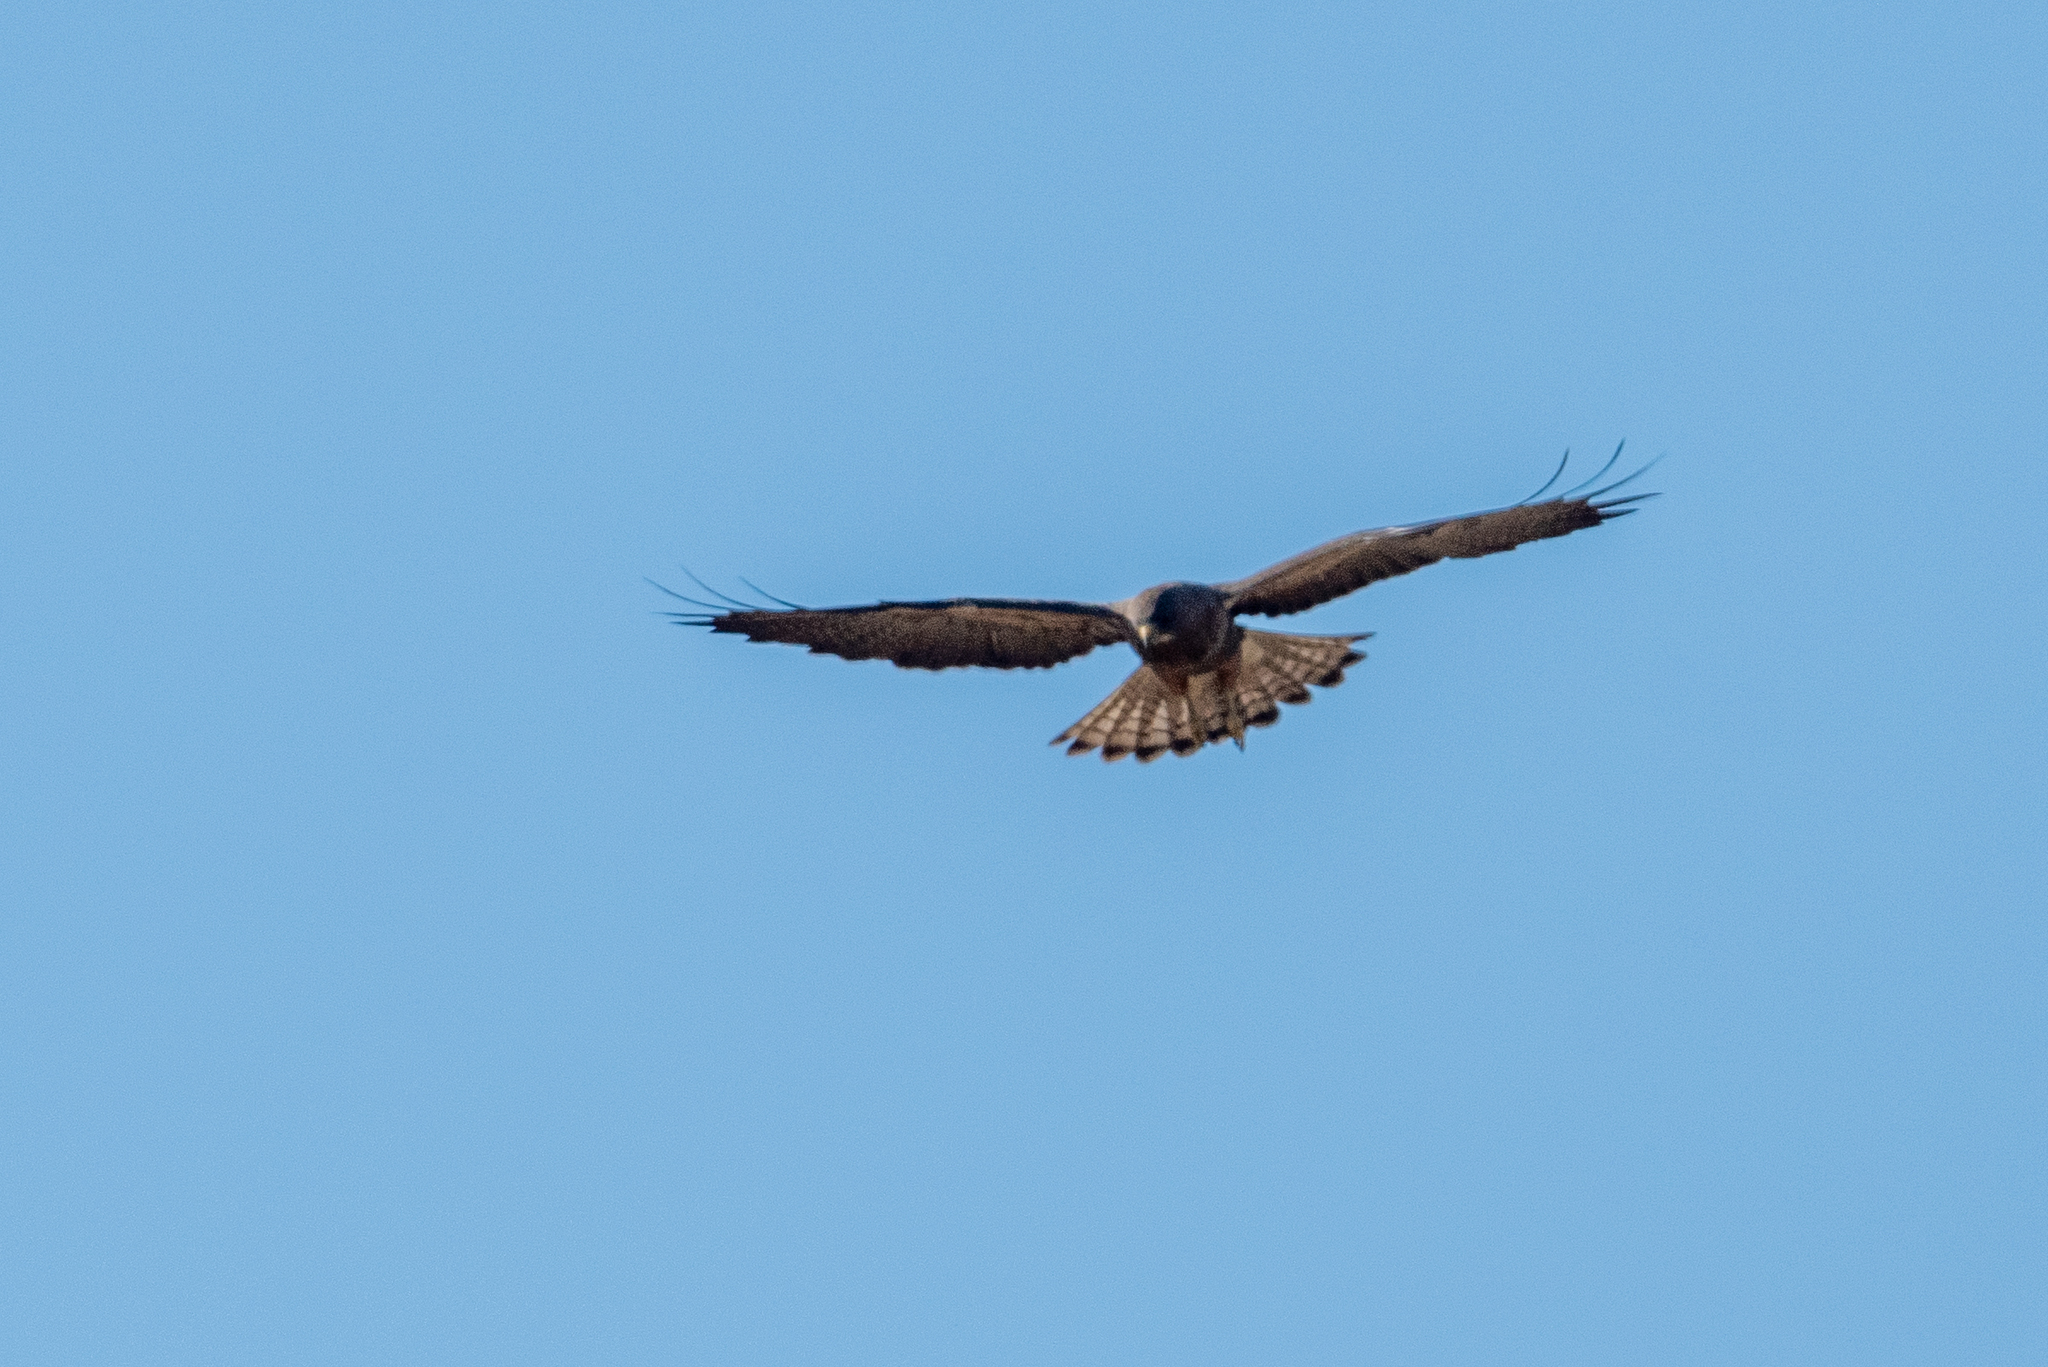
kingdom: Animalia
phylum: Chordata
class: Aves
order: Accipitriformes
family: Accipitridae
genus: Buteo
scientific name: Buteo swainsoni
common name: Swainson's hawk
